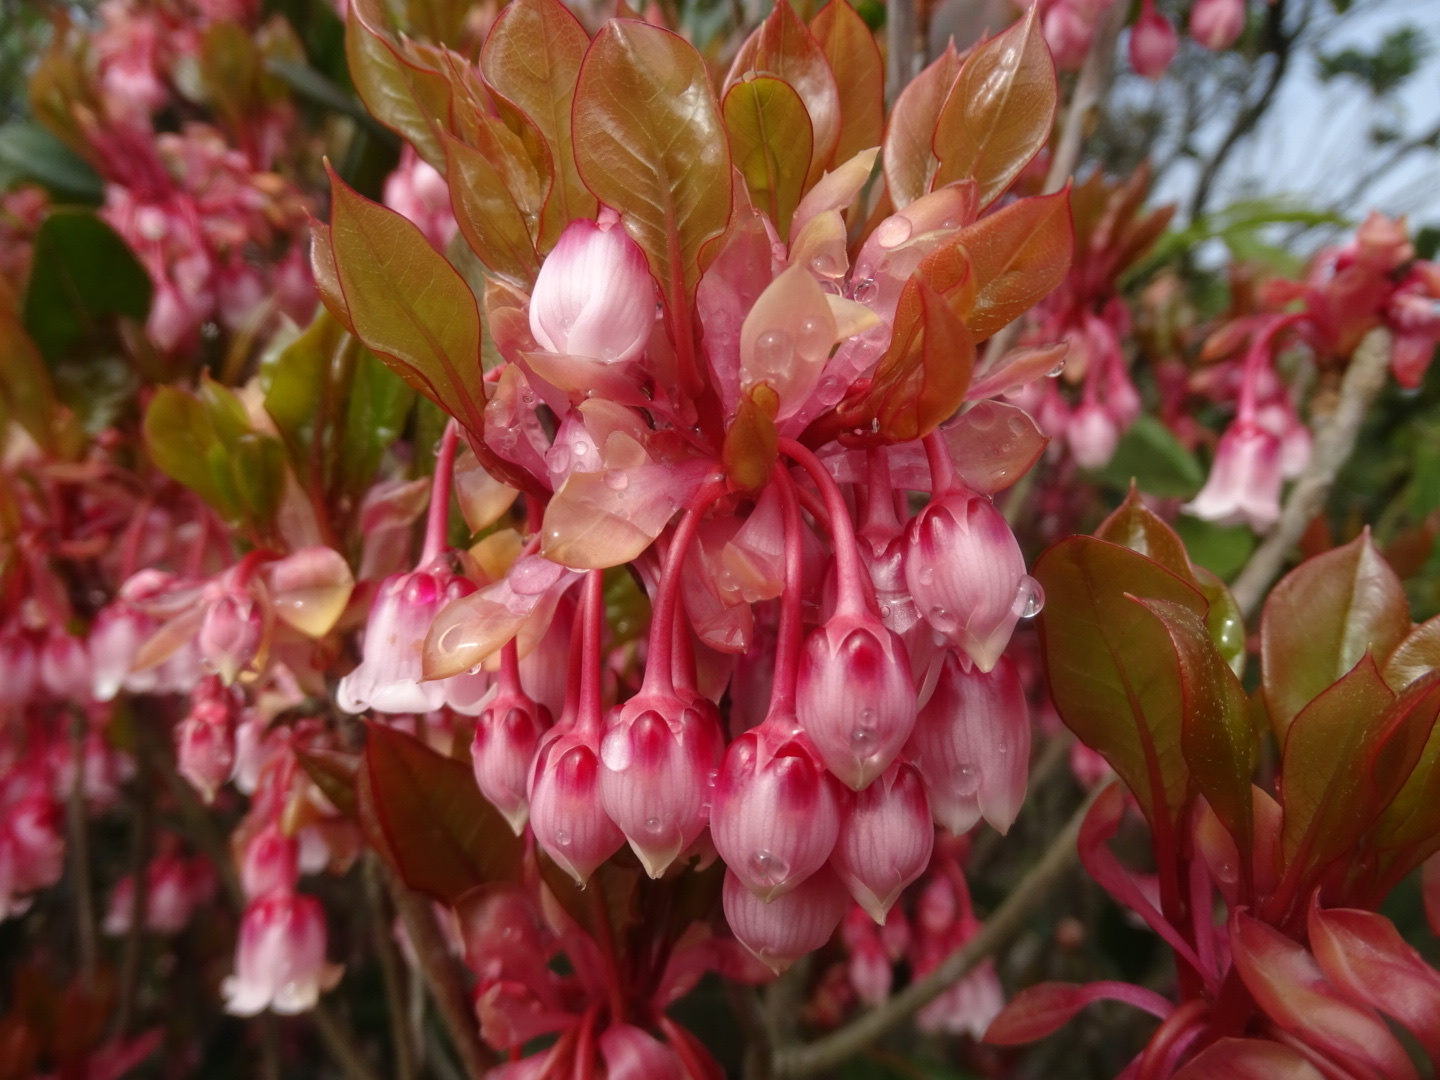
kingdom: Plantae
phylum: Tracheophyta
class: Magnoliopsida
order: Ericales
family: Ericaceae
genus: Enkianthus
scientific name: Enkianthus quinqueflorus
